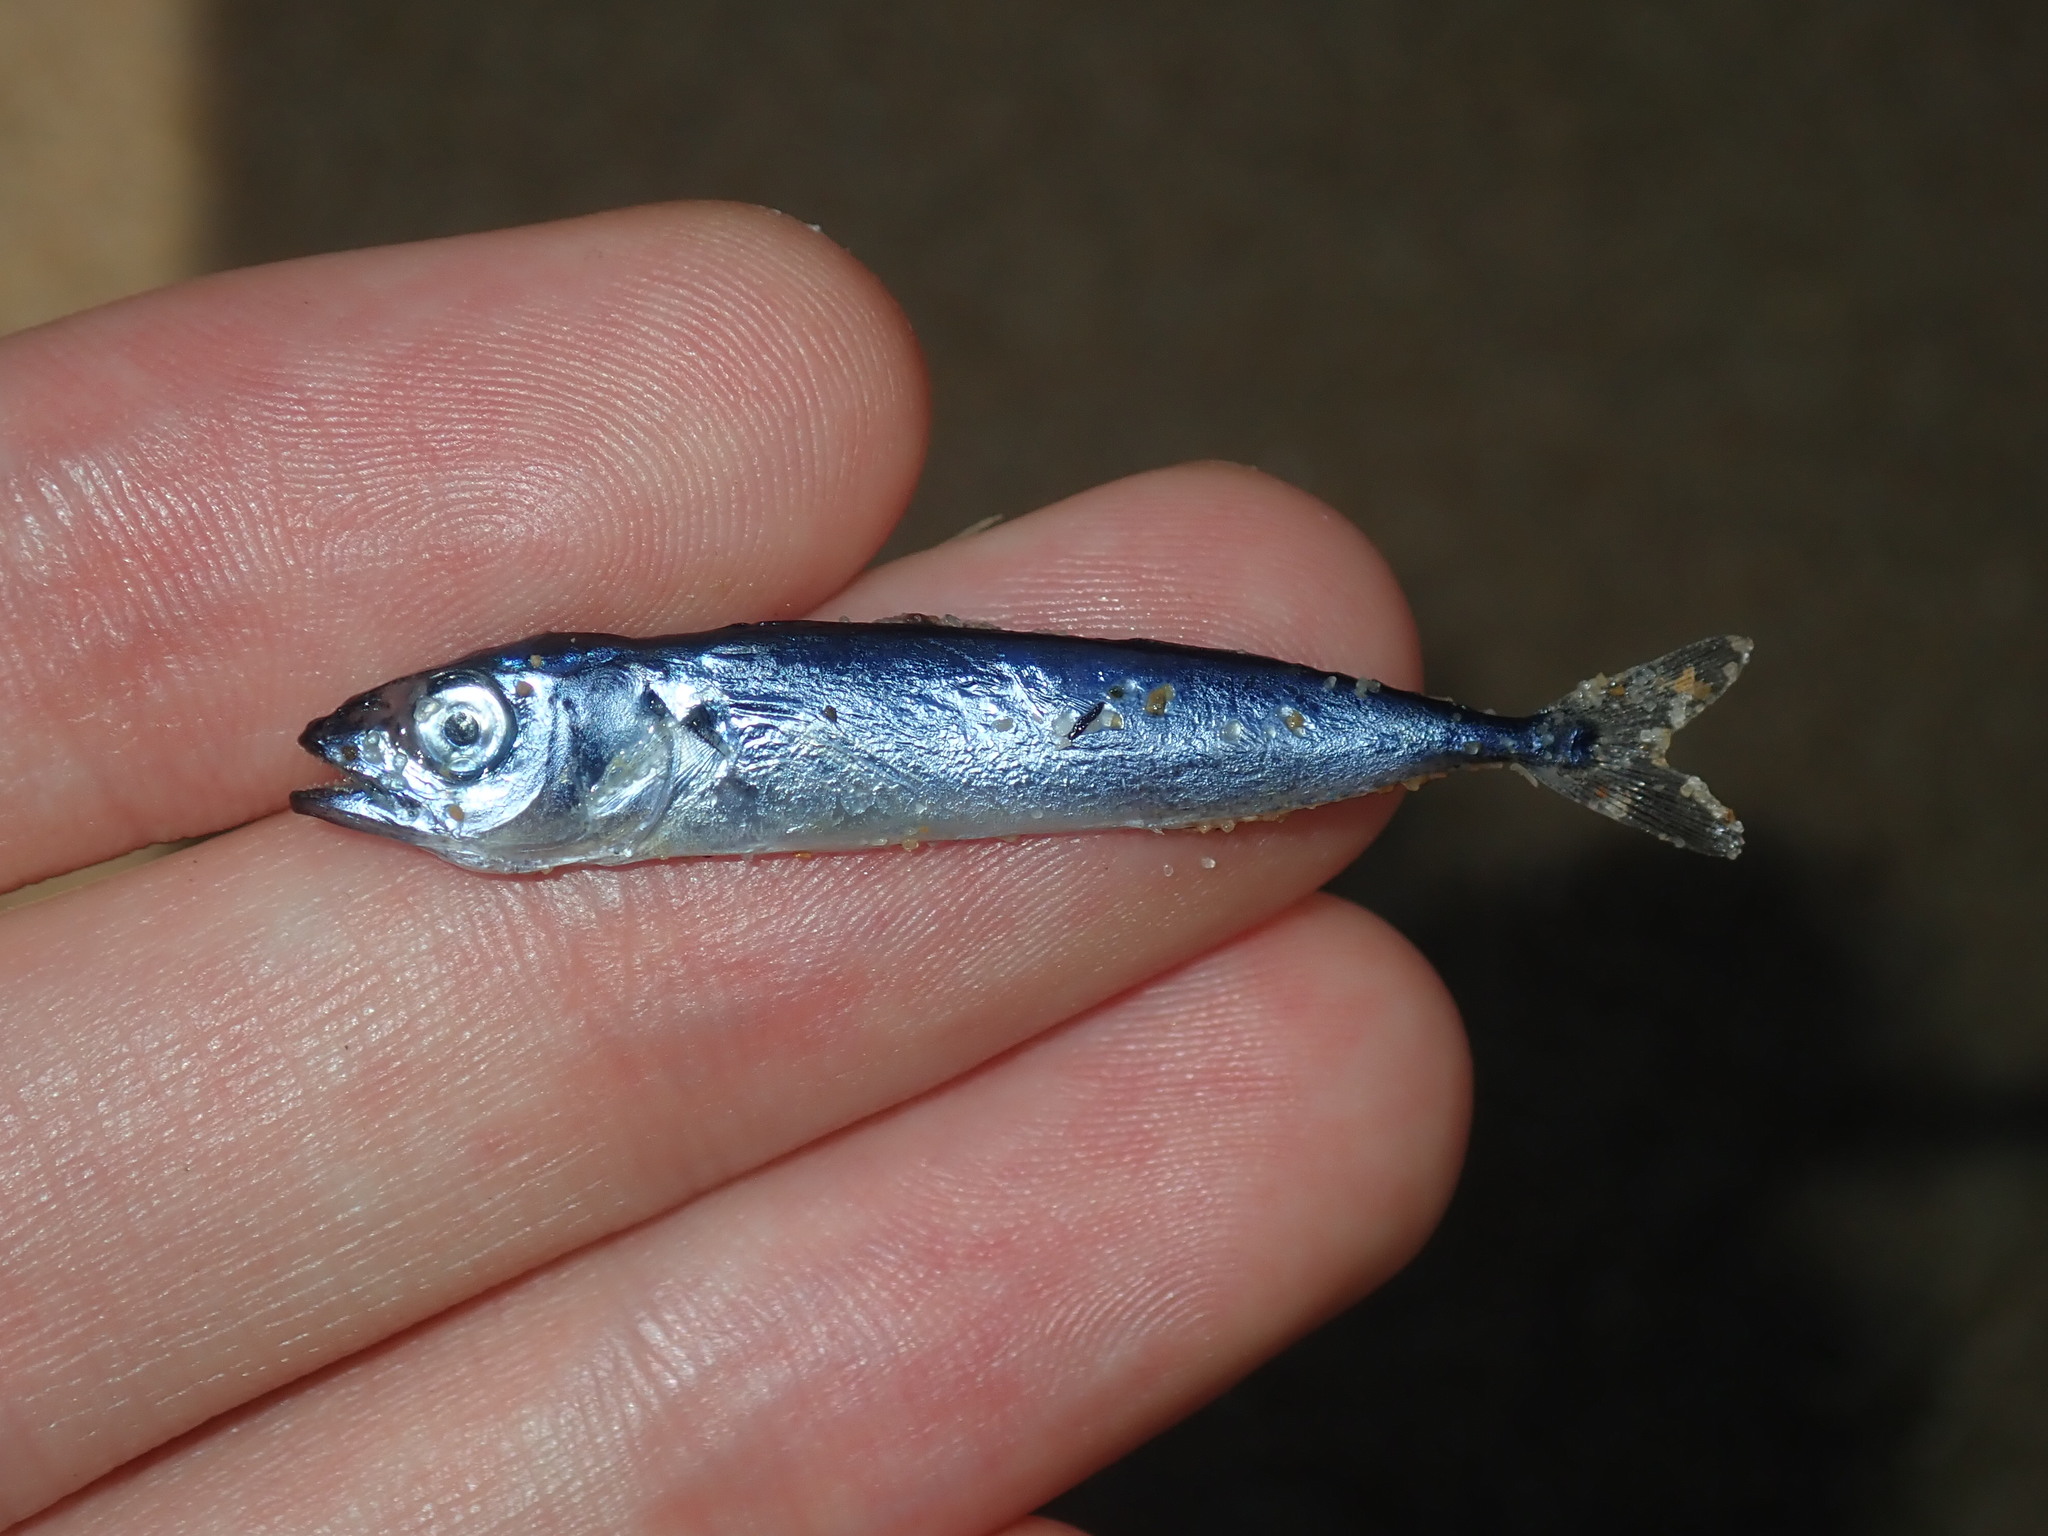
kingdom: Animalia
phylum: Chordata
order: Perciformes
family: Scombridae
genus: Scomber
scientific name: Scomber australasicus
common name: Blue mackerel
